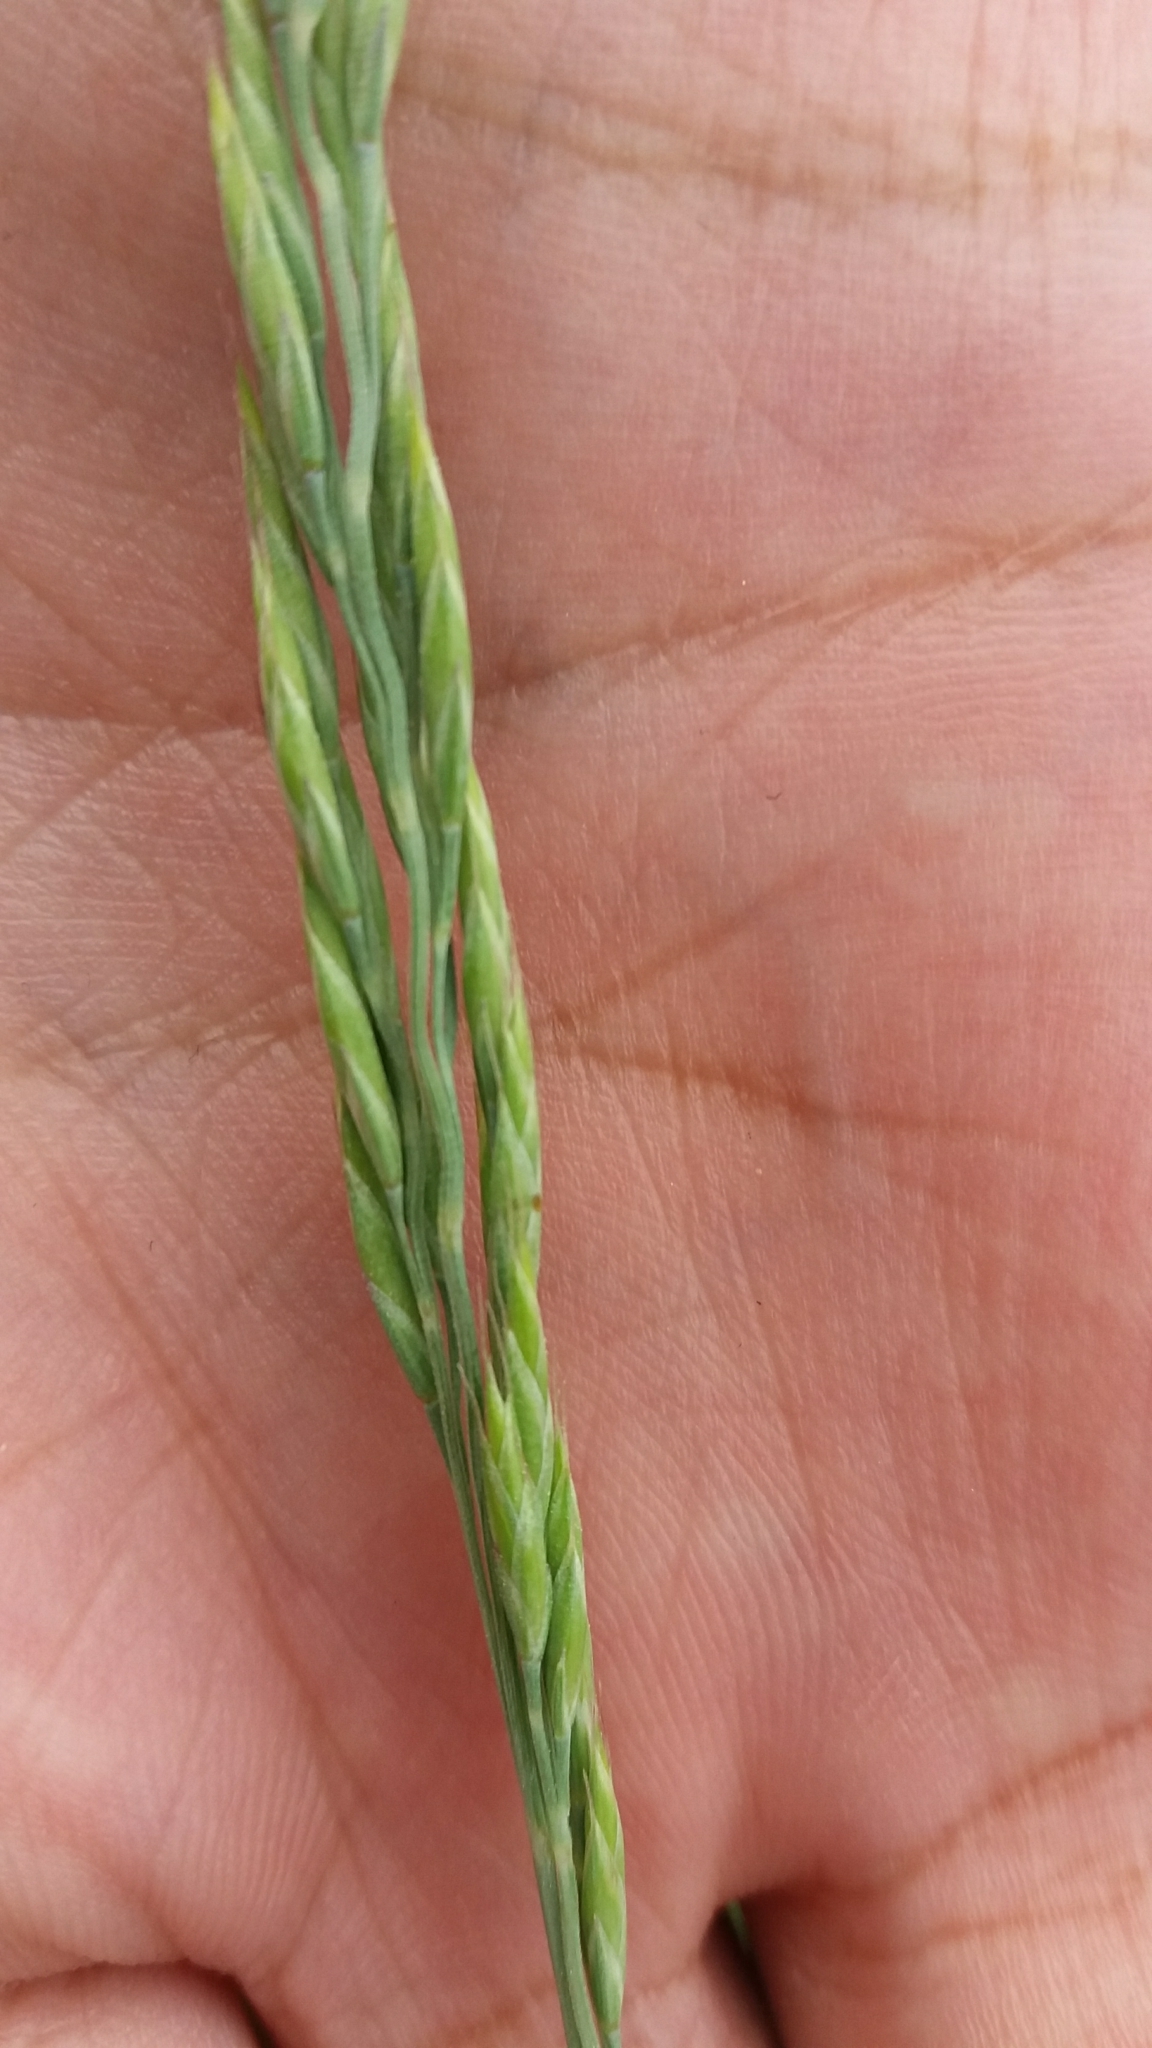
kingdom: Plantae
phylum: Tracheophyta
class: Liliopsida
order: Poales
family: Poaceae
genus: Festuca
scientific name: Festuca
